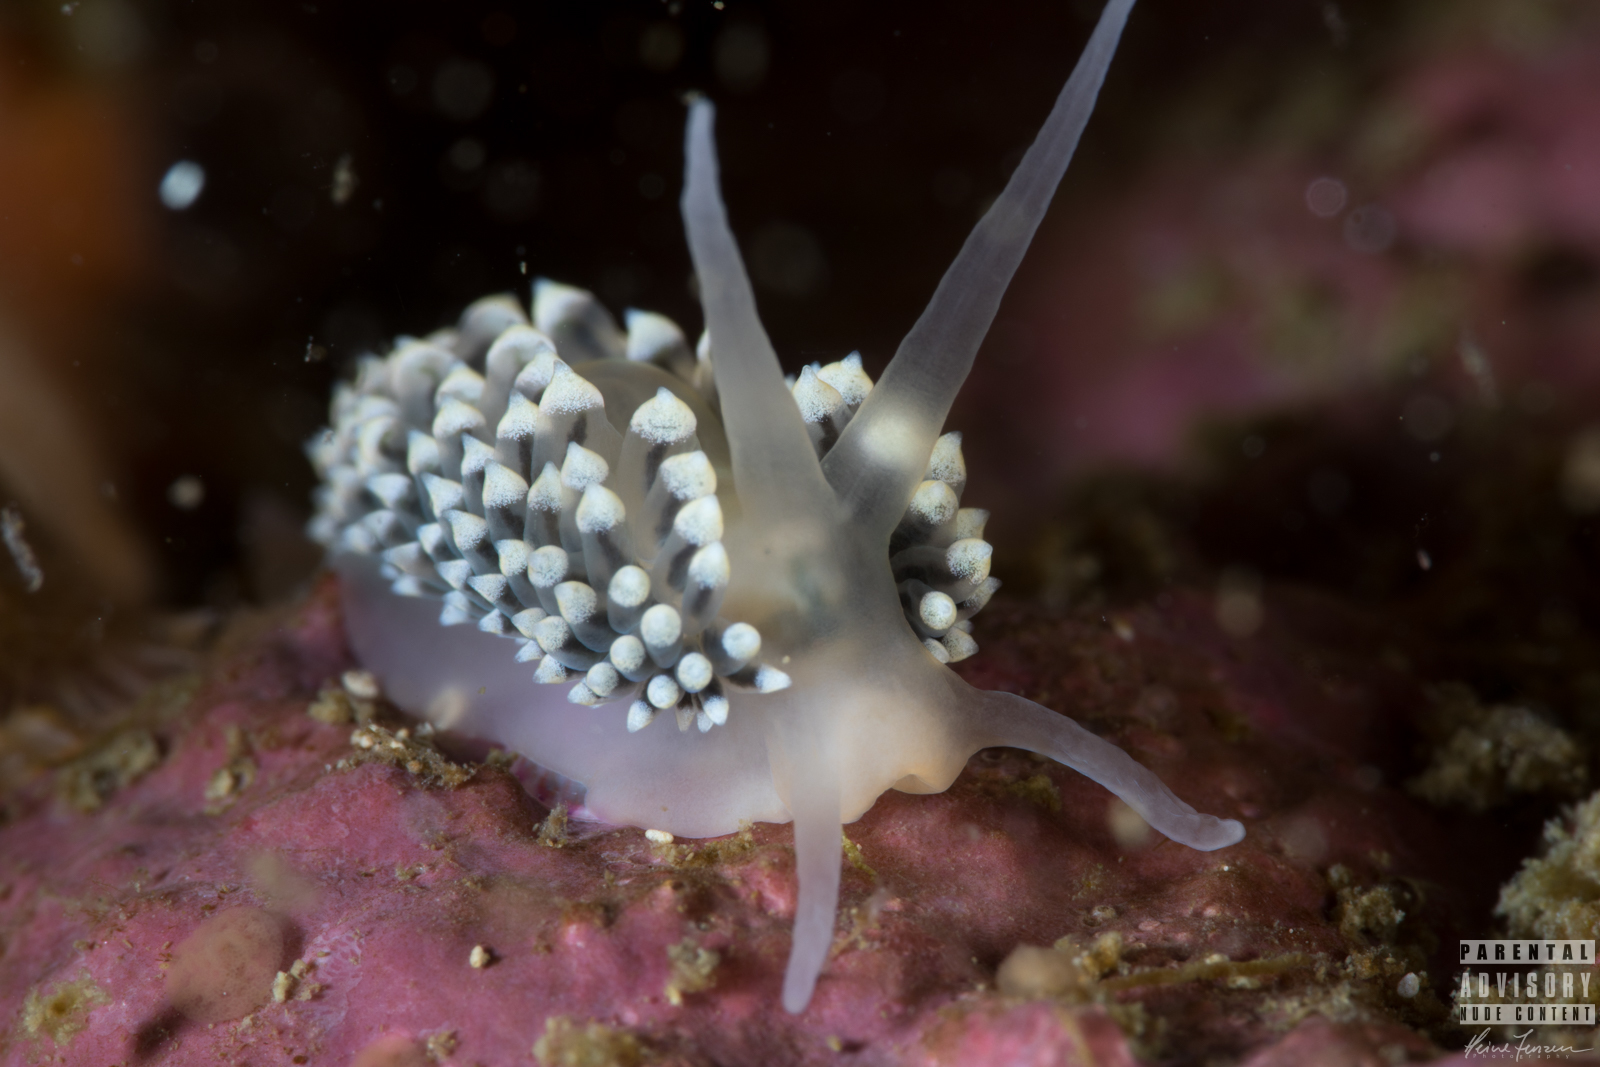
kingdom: Animalia
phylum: Mollusca
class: Gastropoda
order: Nudibranchia
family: Eubranchidae
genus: Eubranchus
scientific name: Eubranchus tricolor
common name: Painted balloon aeolis
